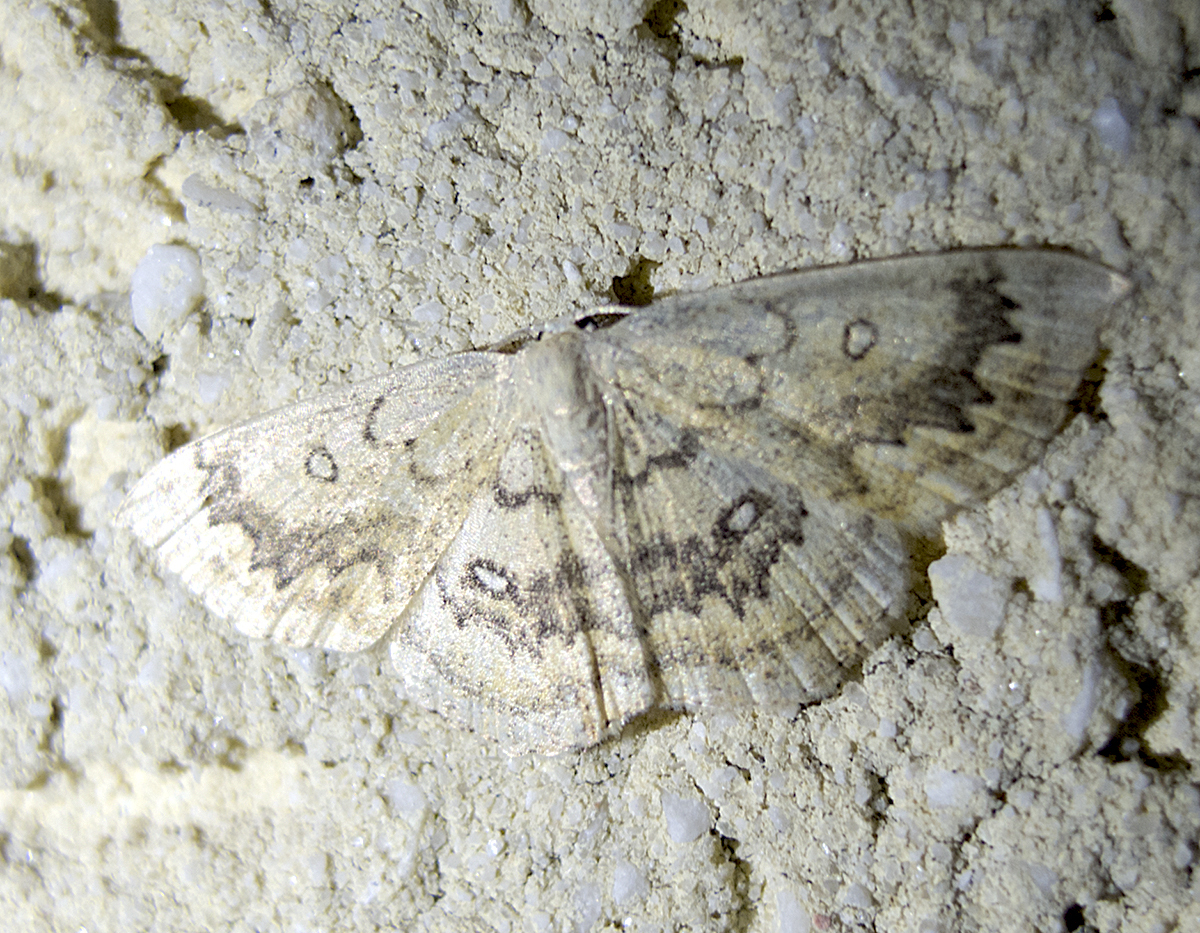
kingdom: Animalia
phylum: Arthropoda
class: Insecta
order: Lepidoptera
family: Geometridae
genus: Cyclophora
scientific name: Cyclophora annularia
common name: Mocha
